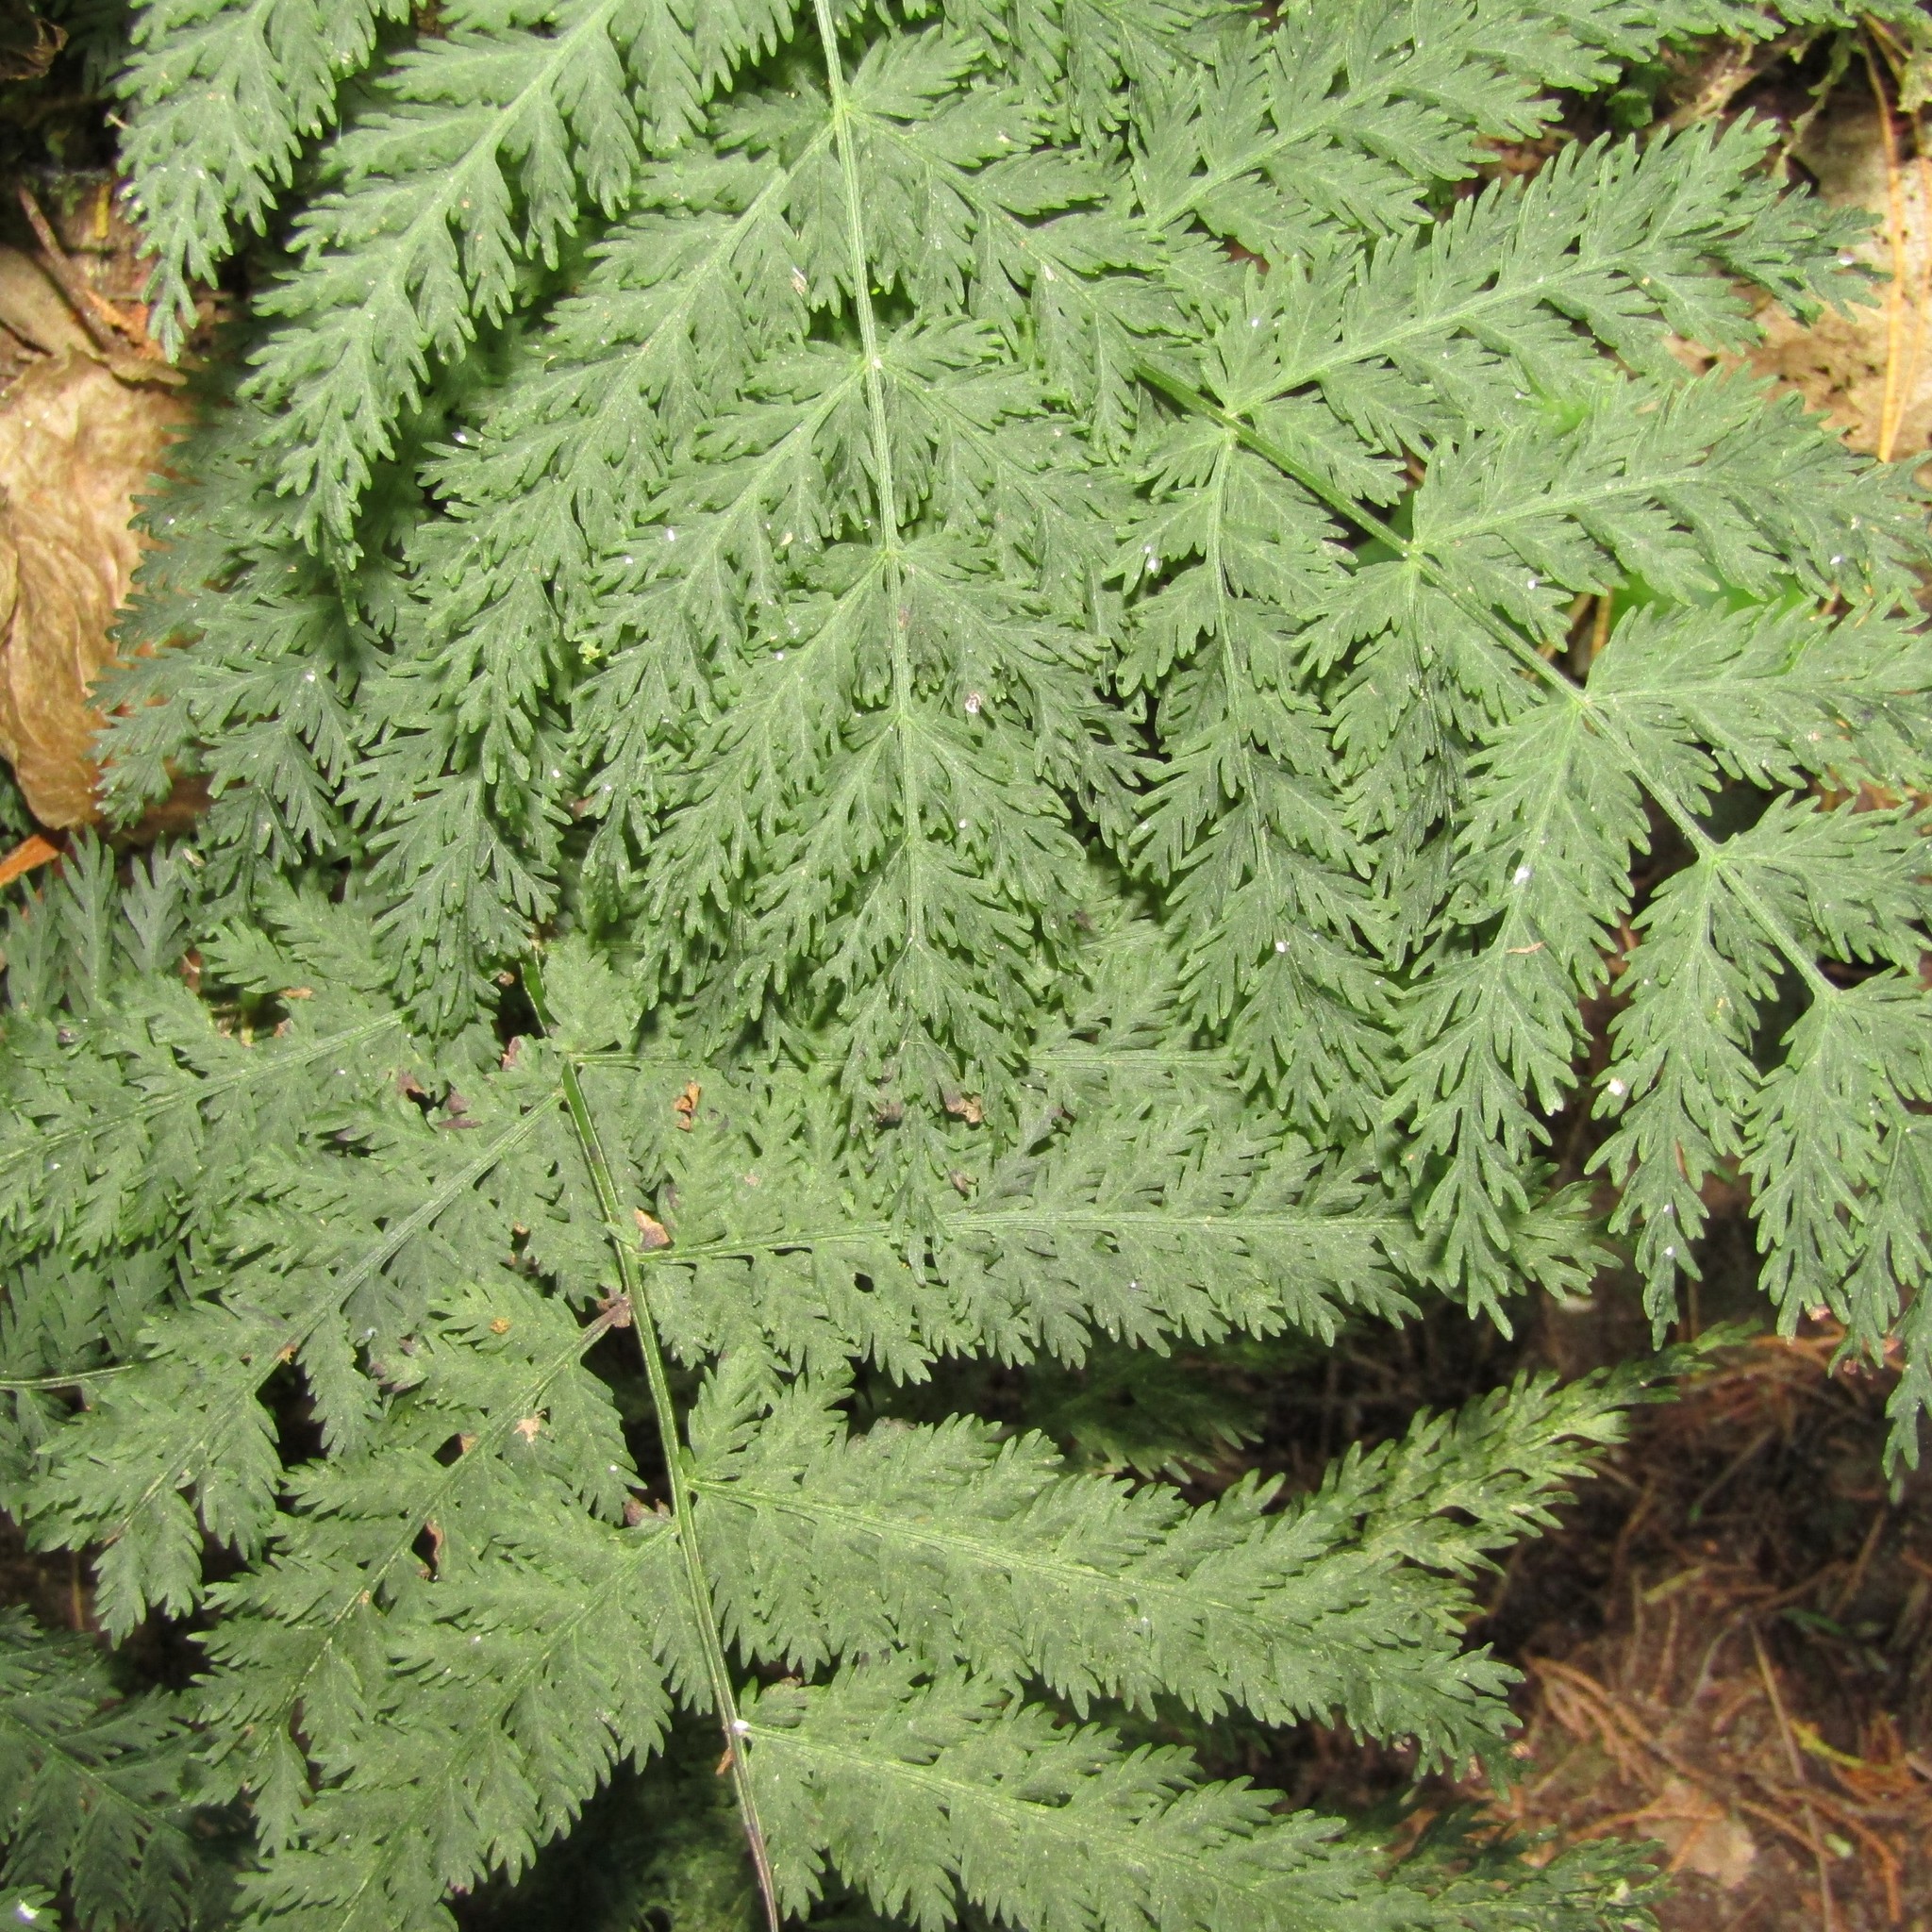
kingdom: Plantae
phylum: Tracheophyta
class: Polypodiopsida
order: Osmundales
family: Osmundaceae
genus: Leptopteris
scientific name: Leptopteris hymenophylloides
